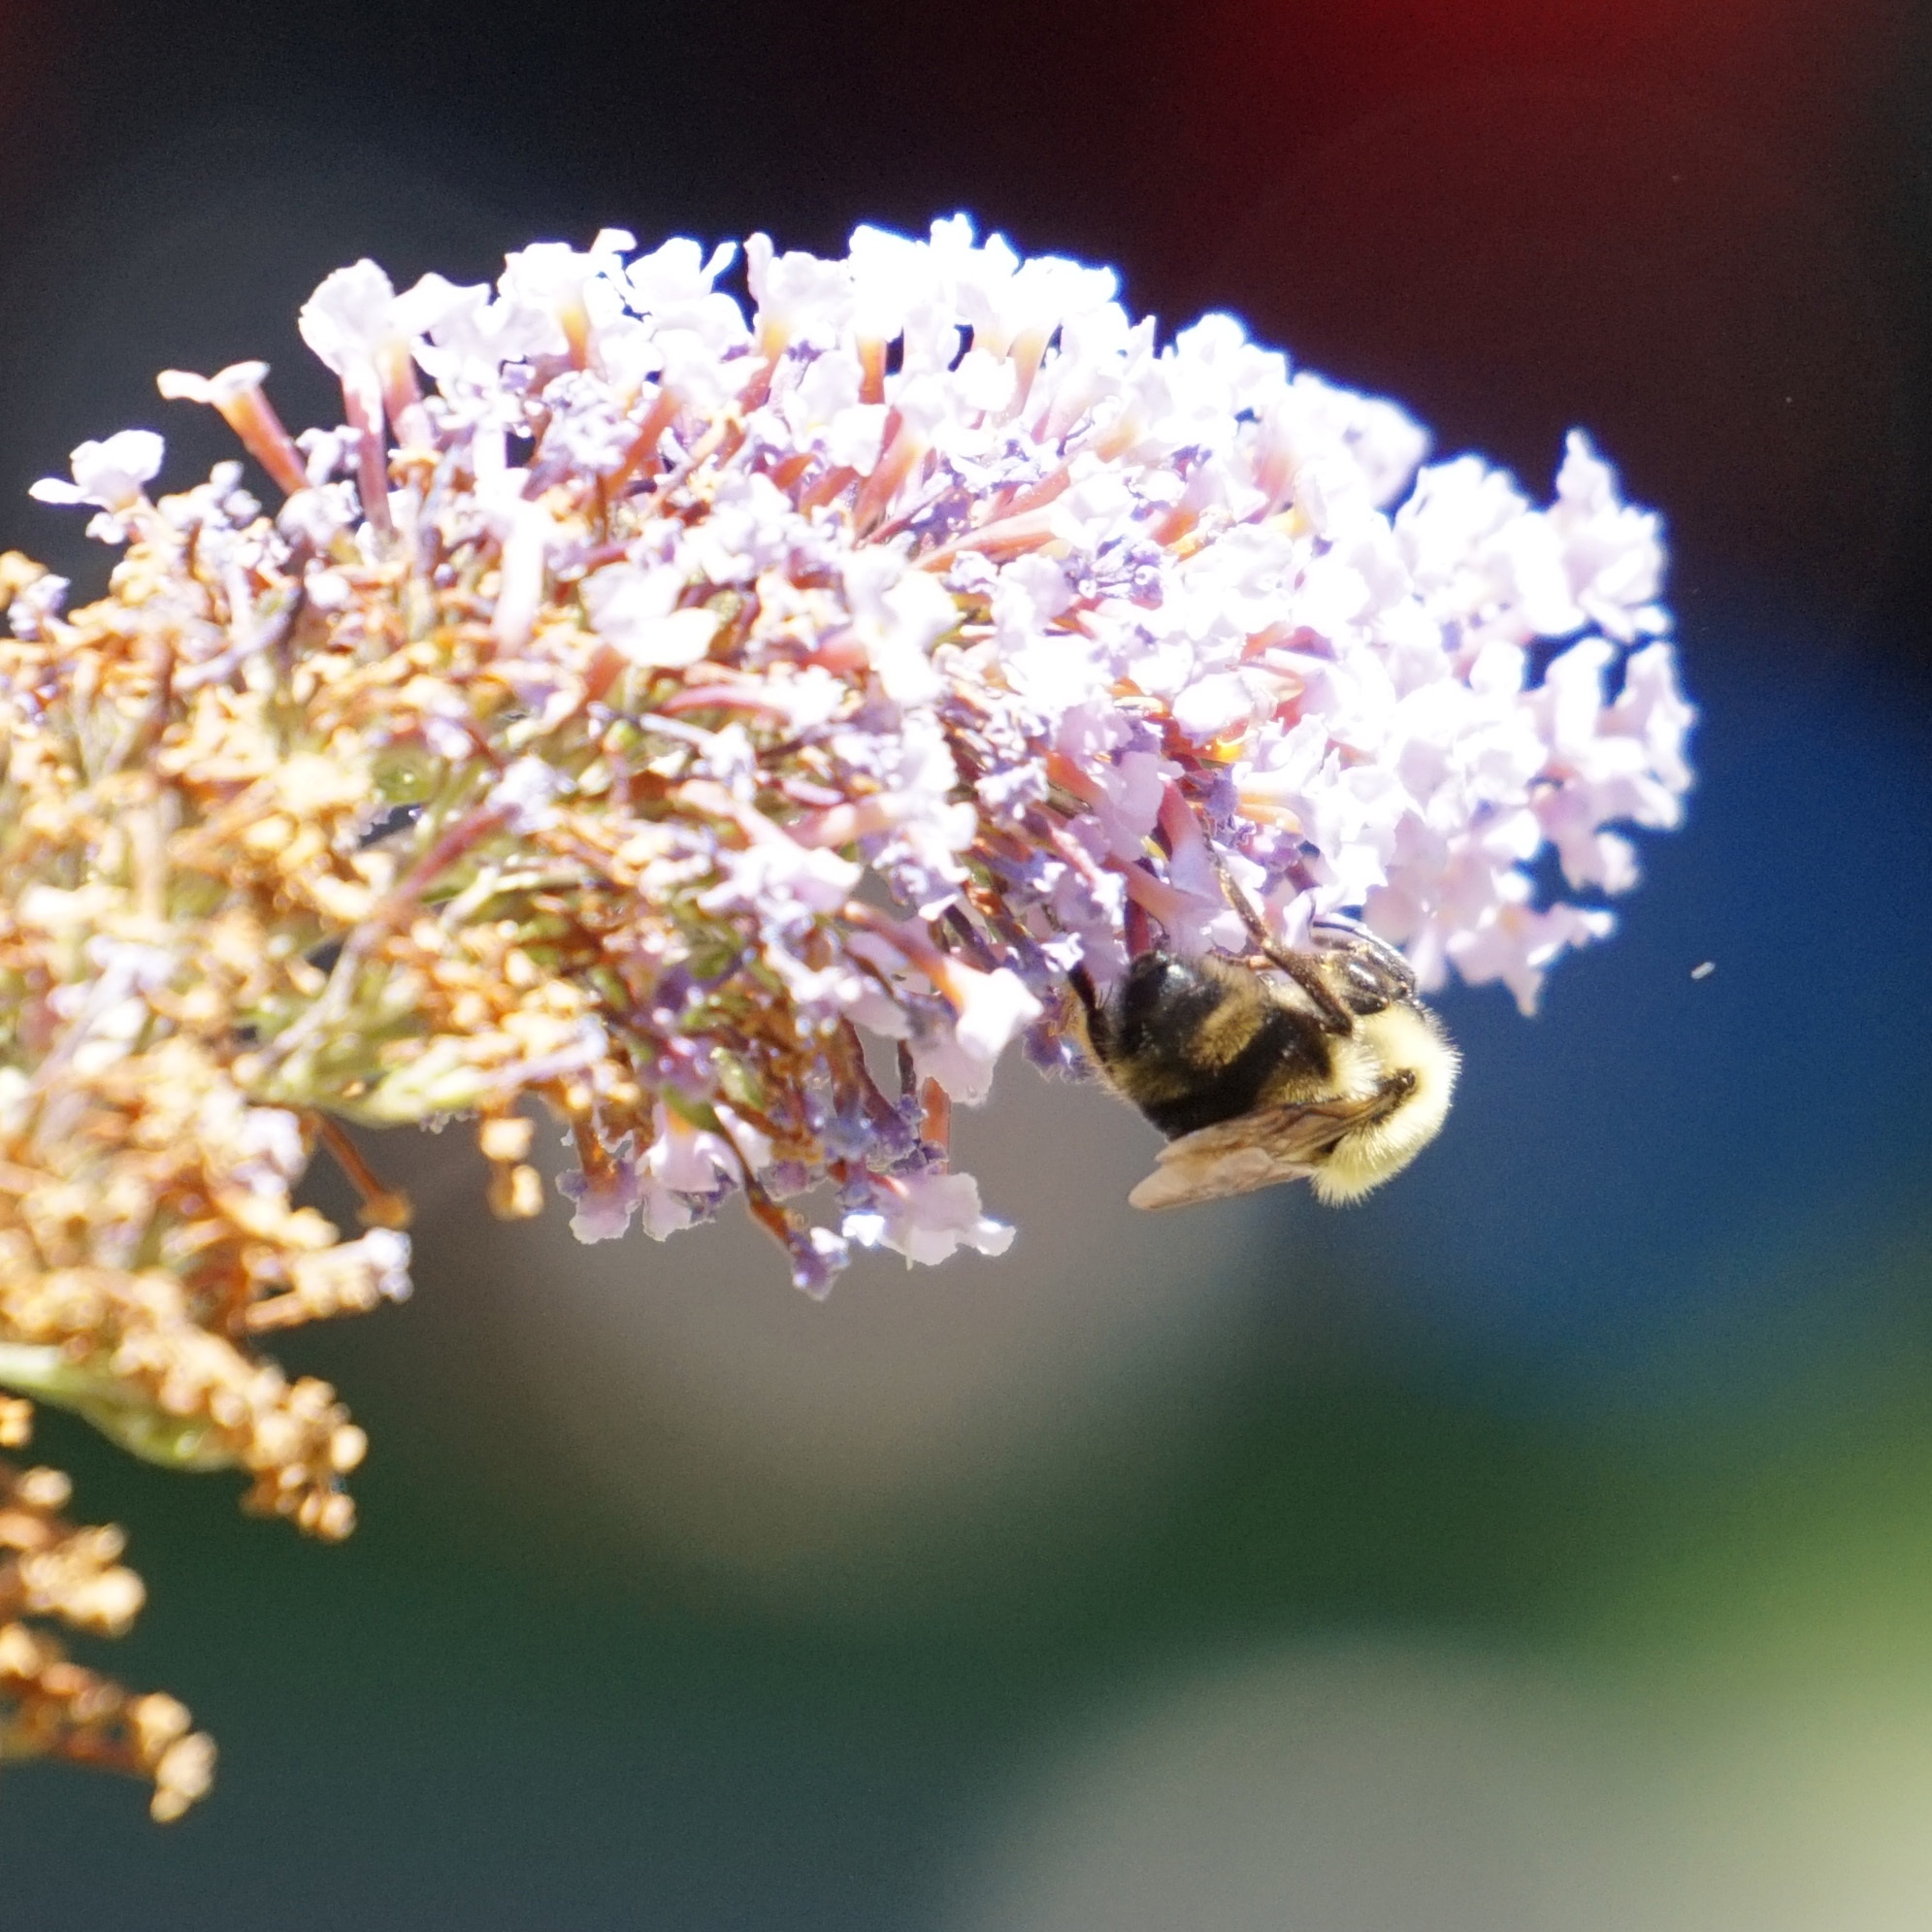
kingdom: Animalia
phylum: Arthropoda
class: Insecta
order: Hymenoptera
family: Apidae
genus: Bombus
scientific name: Bombus bimaculatus
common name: Two-spotted bumble bee
